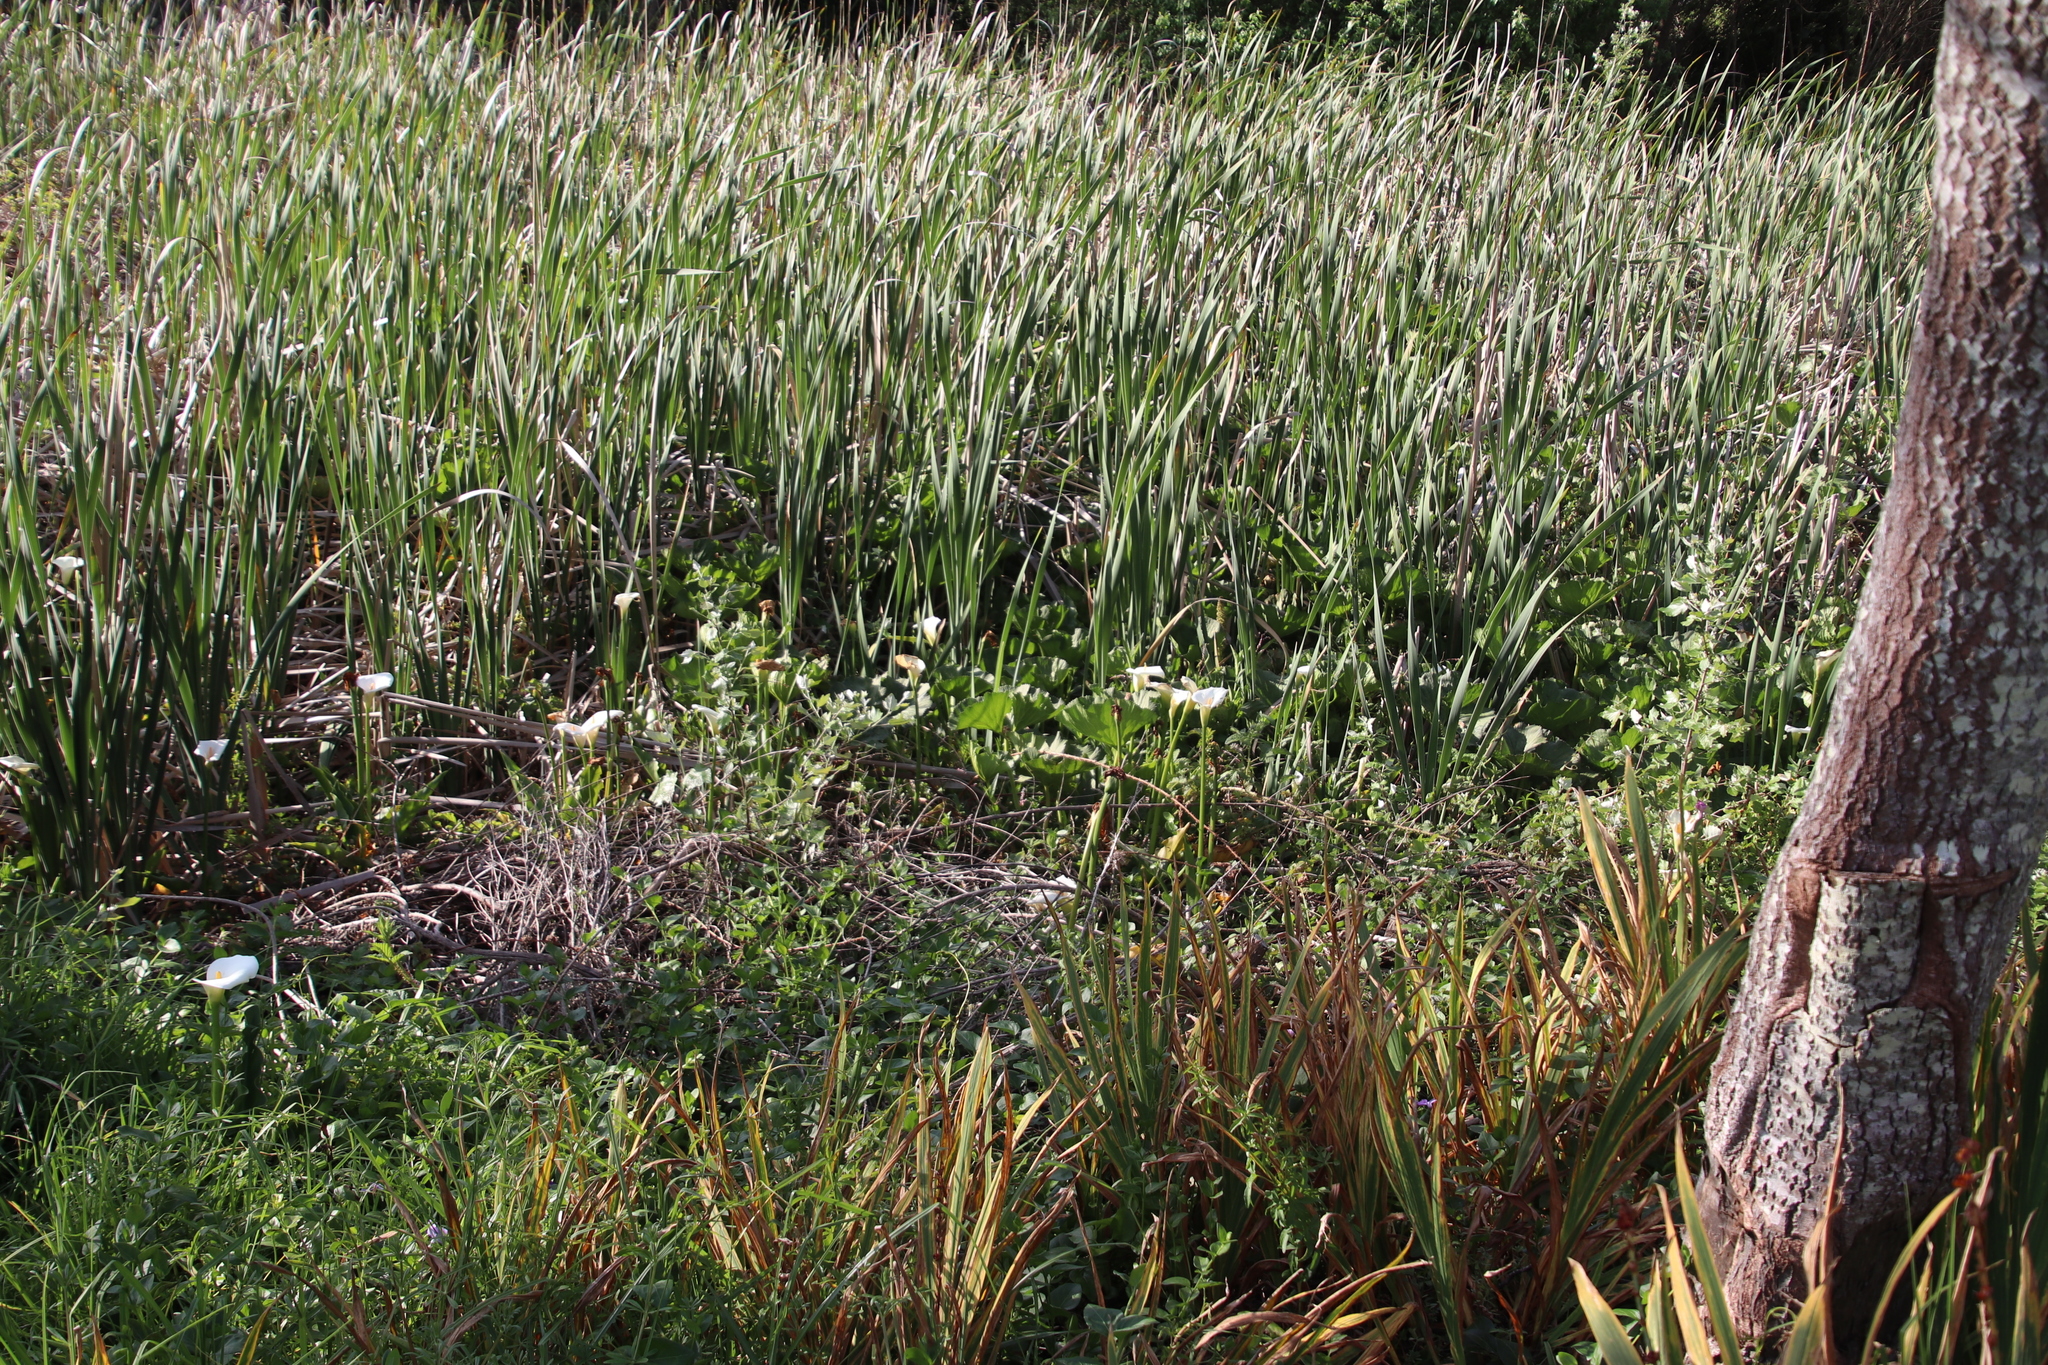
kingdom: Plantae
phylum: Tracheophyta
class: Magnoliopsida
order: Gunnerales
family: Gunneraceae
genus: Gunnera
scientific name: Gunnera perpensa
